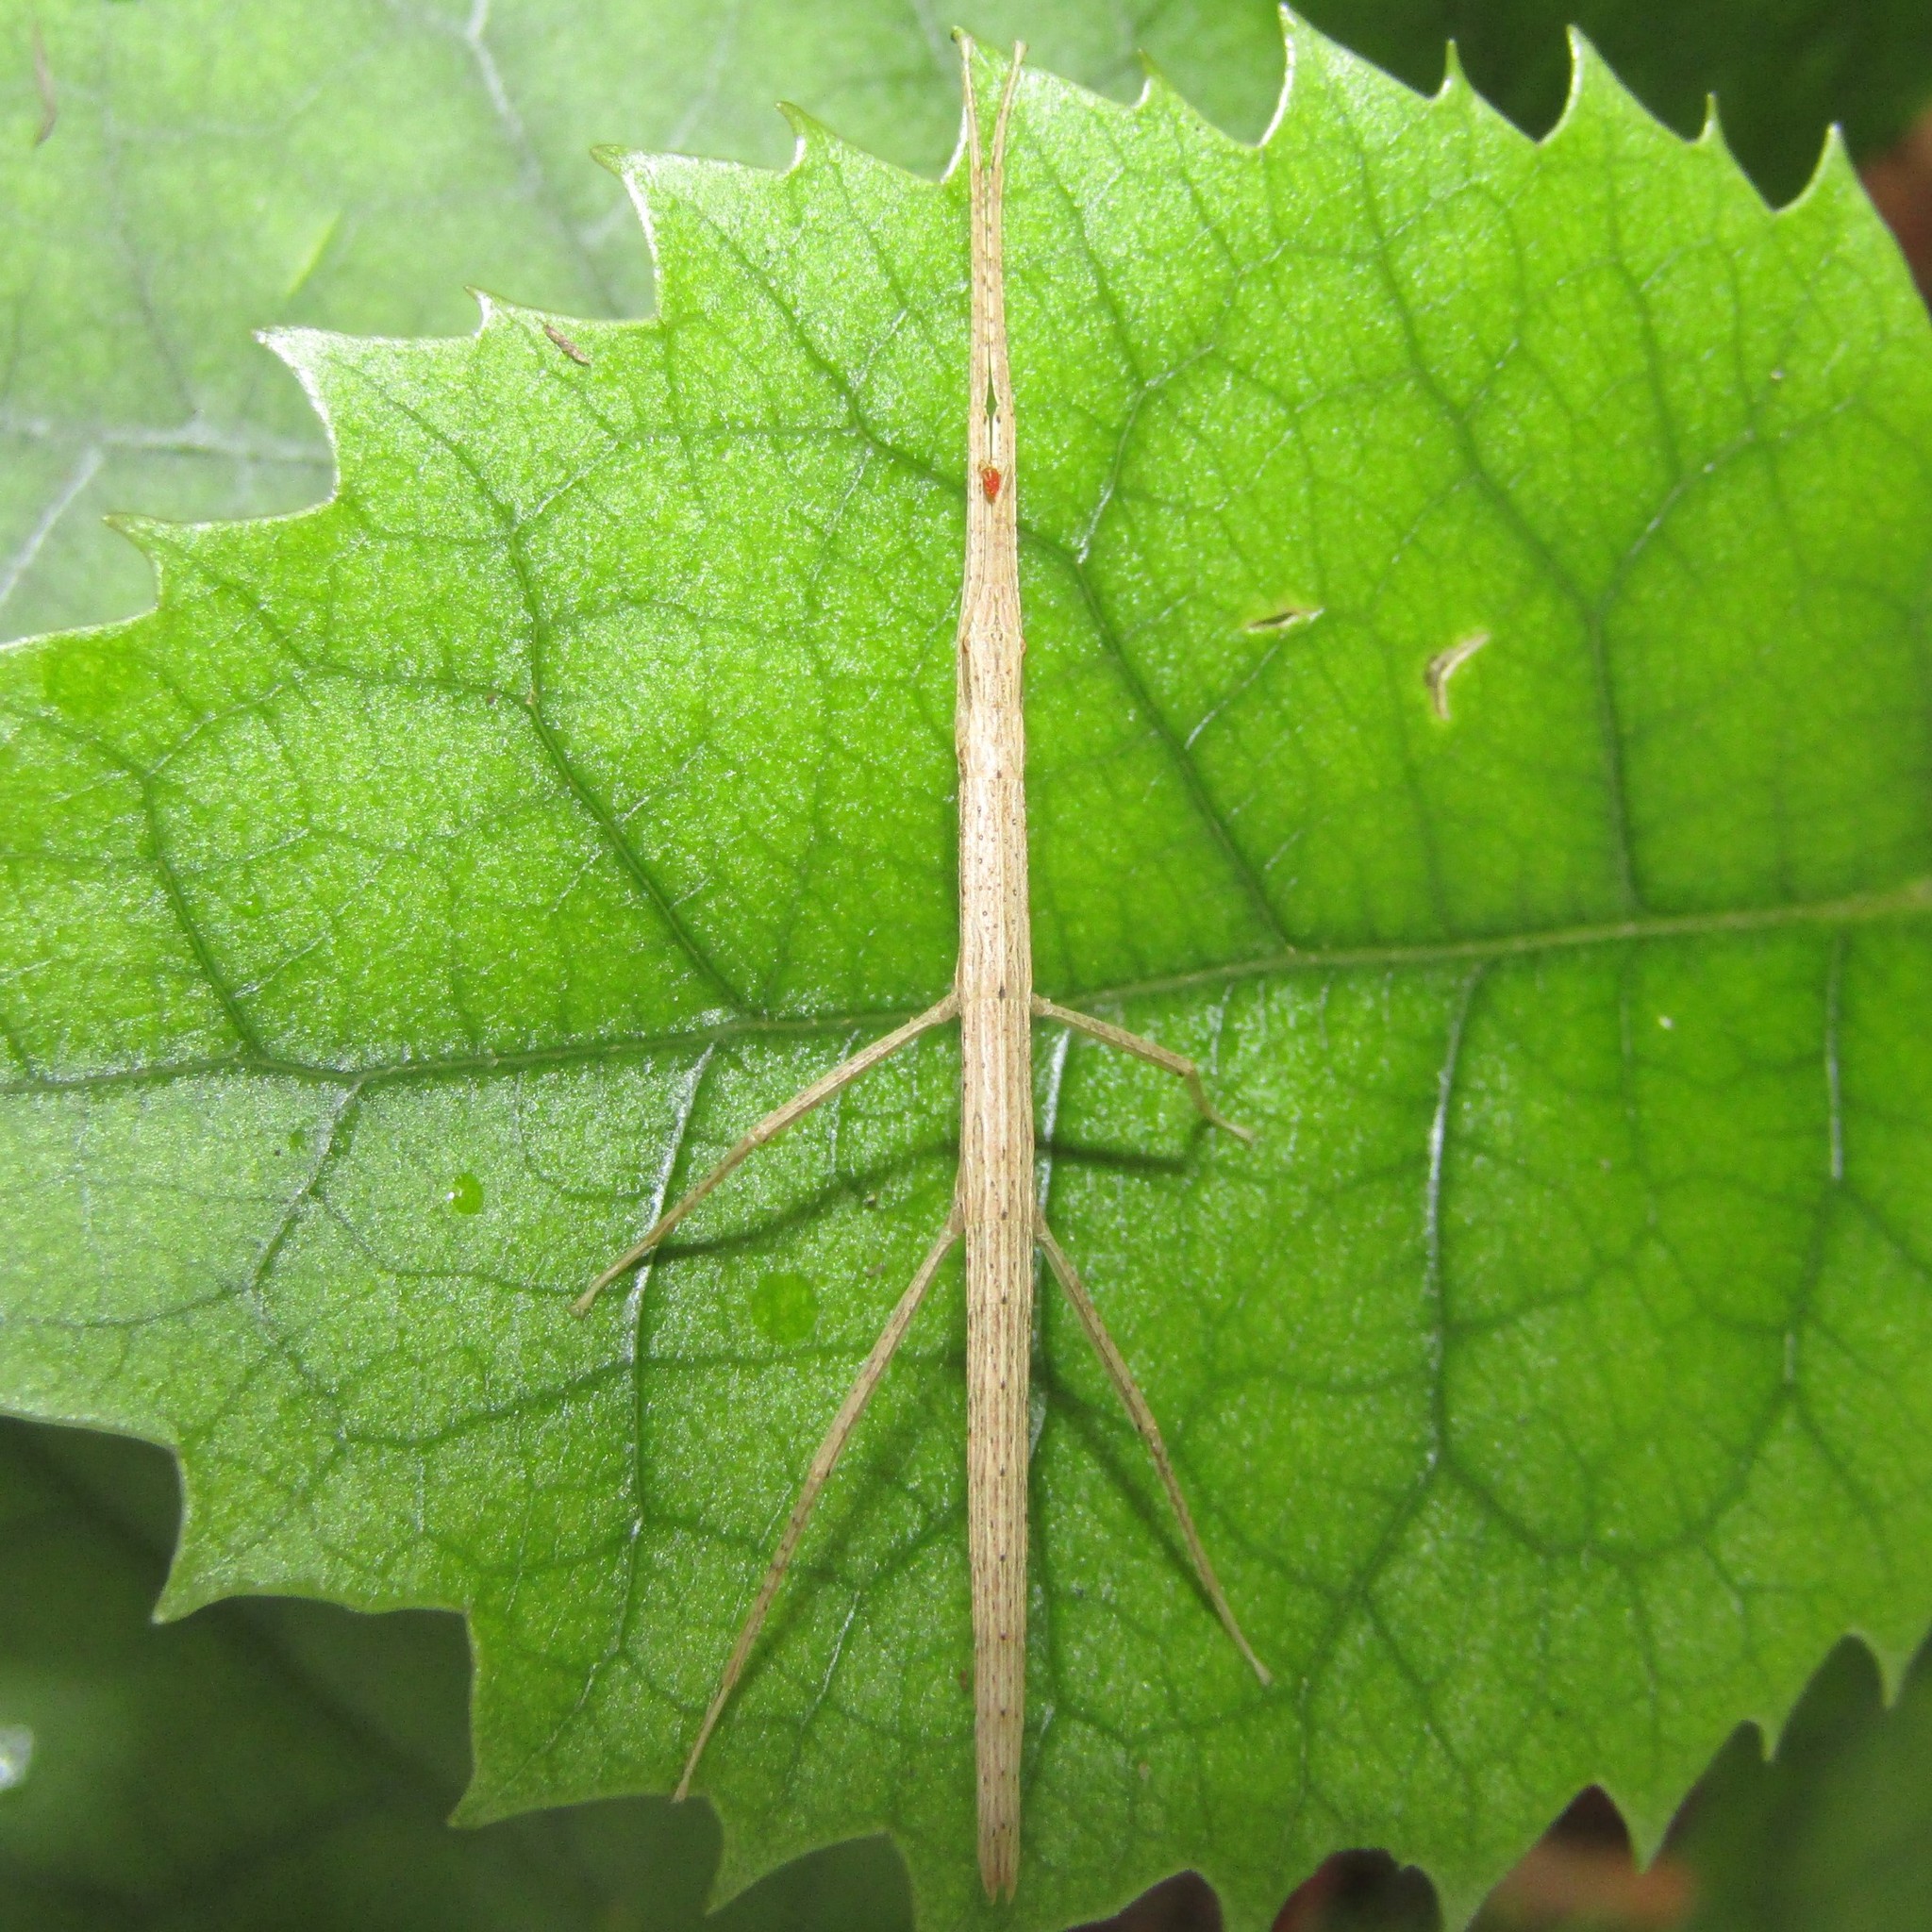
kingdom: Animalia
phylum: Arthropoda
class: Insecta
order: Phasmida
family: Phasmatidae
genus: Tectarchus
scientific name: Tectarchus huttoni
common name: The common ridge-backed stick insect
